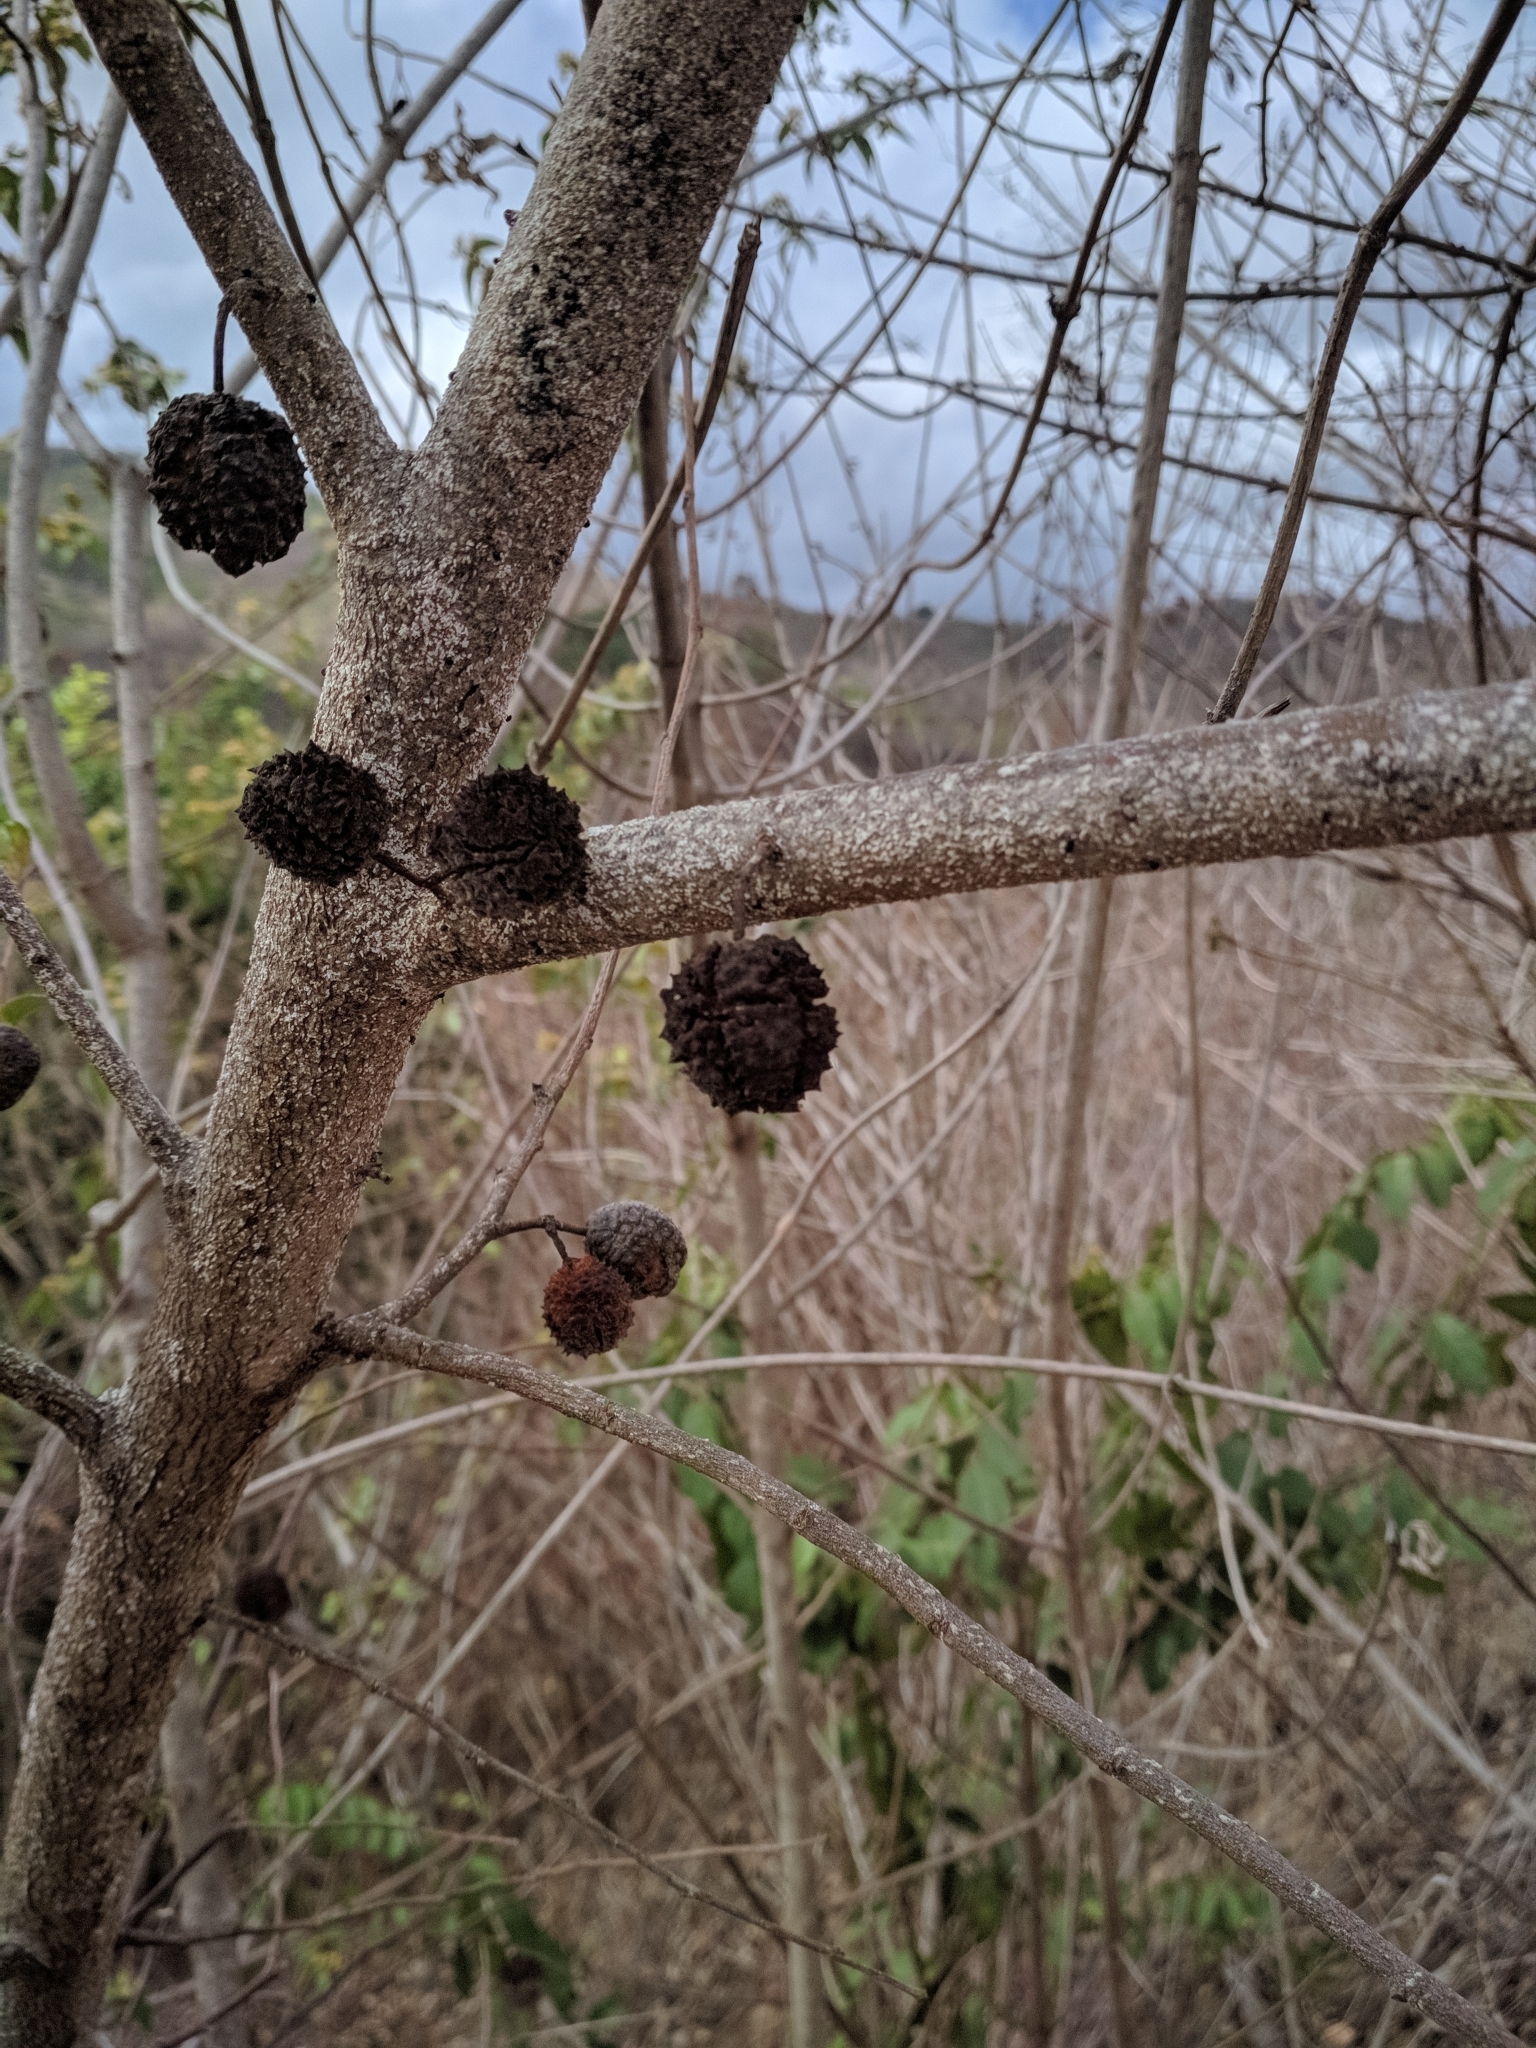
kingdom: Plantae
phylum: Tracheophyta
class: Magnoliopsida
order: Malvales
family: Malvaceae
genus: Guazuma
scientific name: Guazuma ulmifolia
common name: Bastard-cedar
